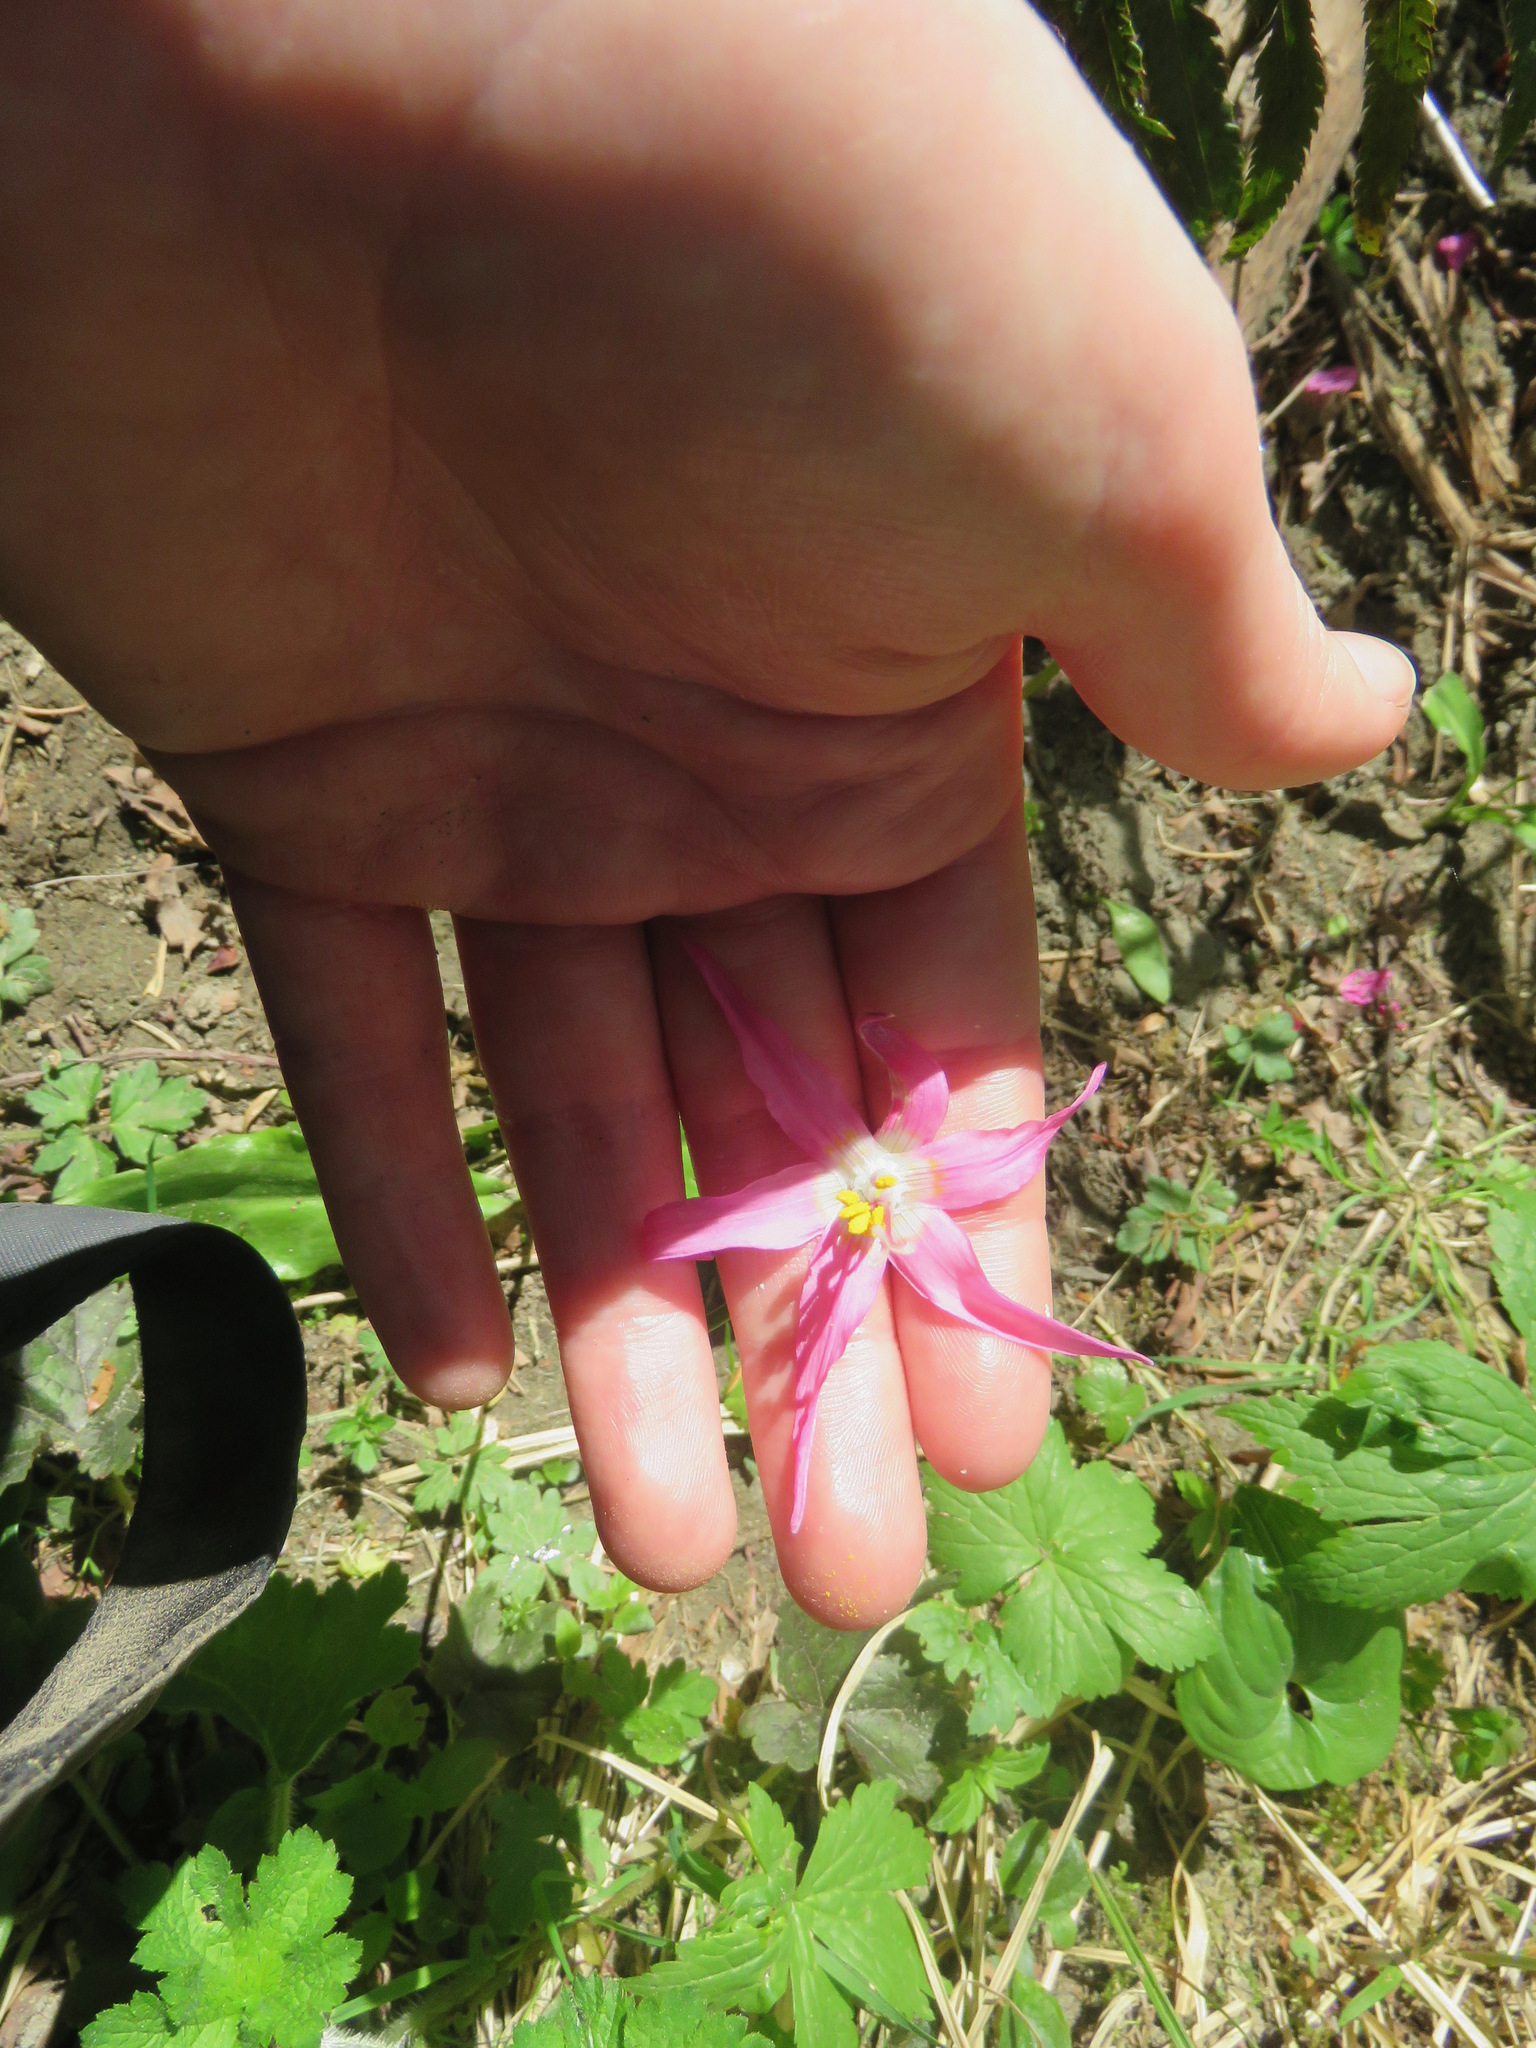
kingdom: Plantae
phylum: Tracheophyta
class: Liliopsida
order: Liliales
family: Liliaceae
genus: Erythronium
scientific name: Erythronium revolutum
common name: Pink fawn-lily
